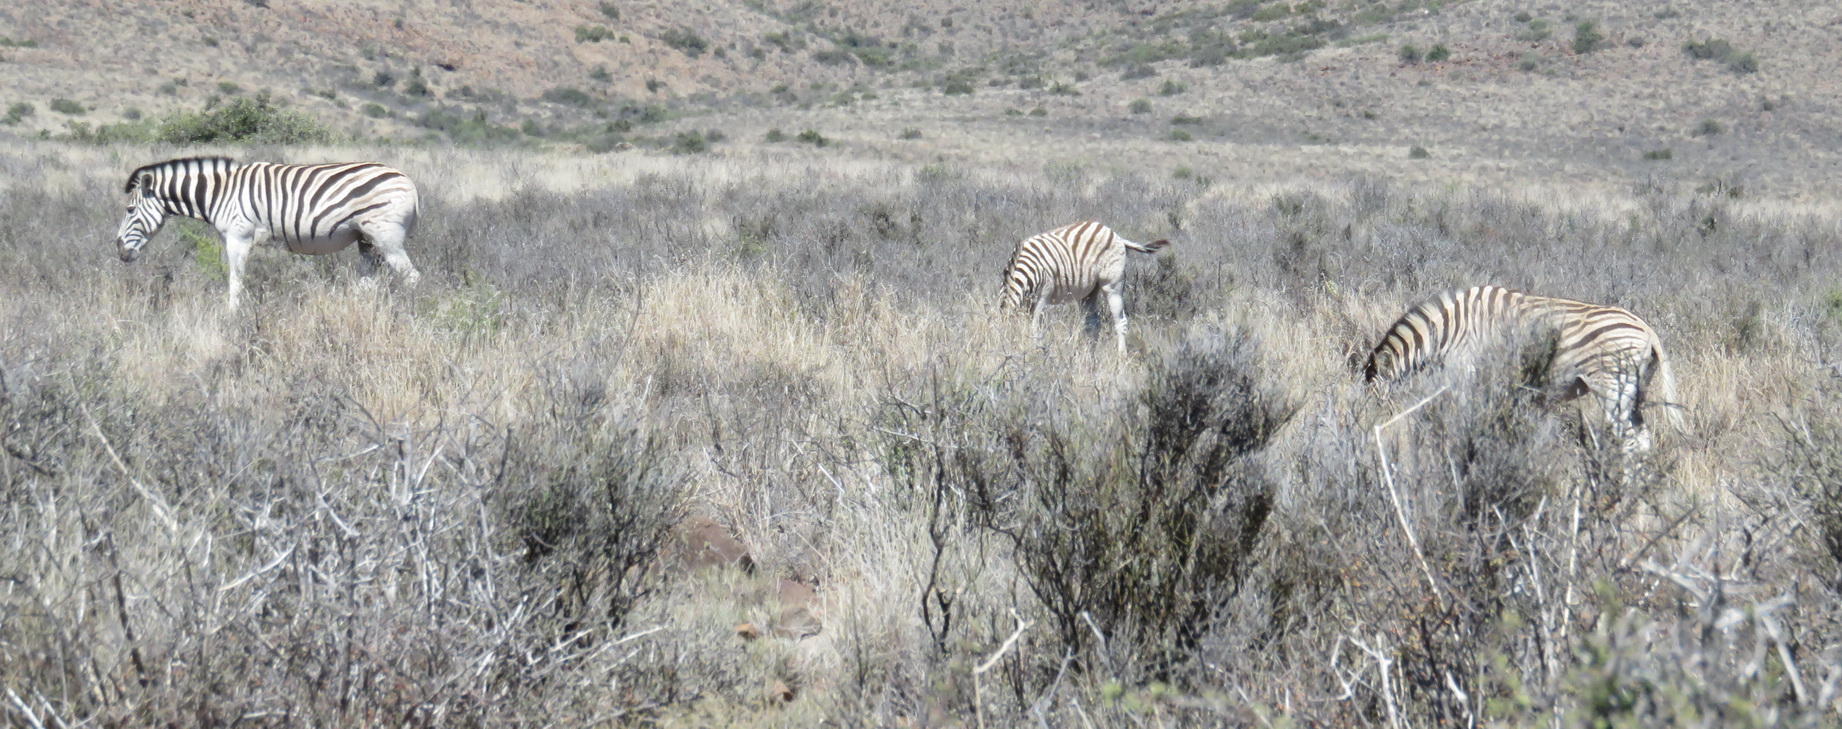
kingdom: Animalia
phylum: Chordata
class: Mammalia
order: Perissodactyla
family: Equidae
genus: Equus
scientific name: Equus quagga
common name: Plains zebra
